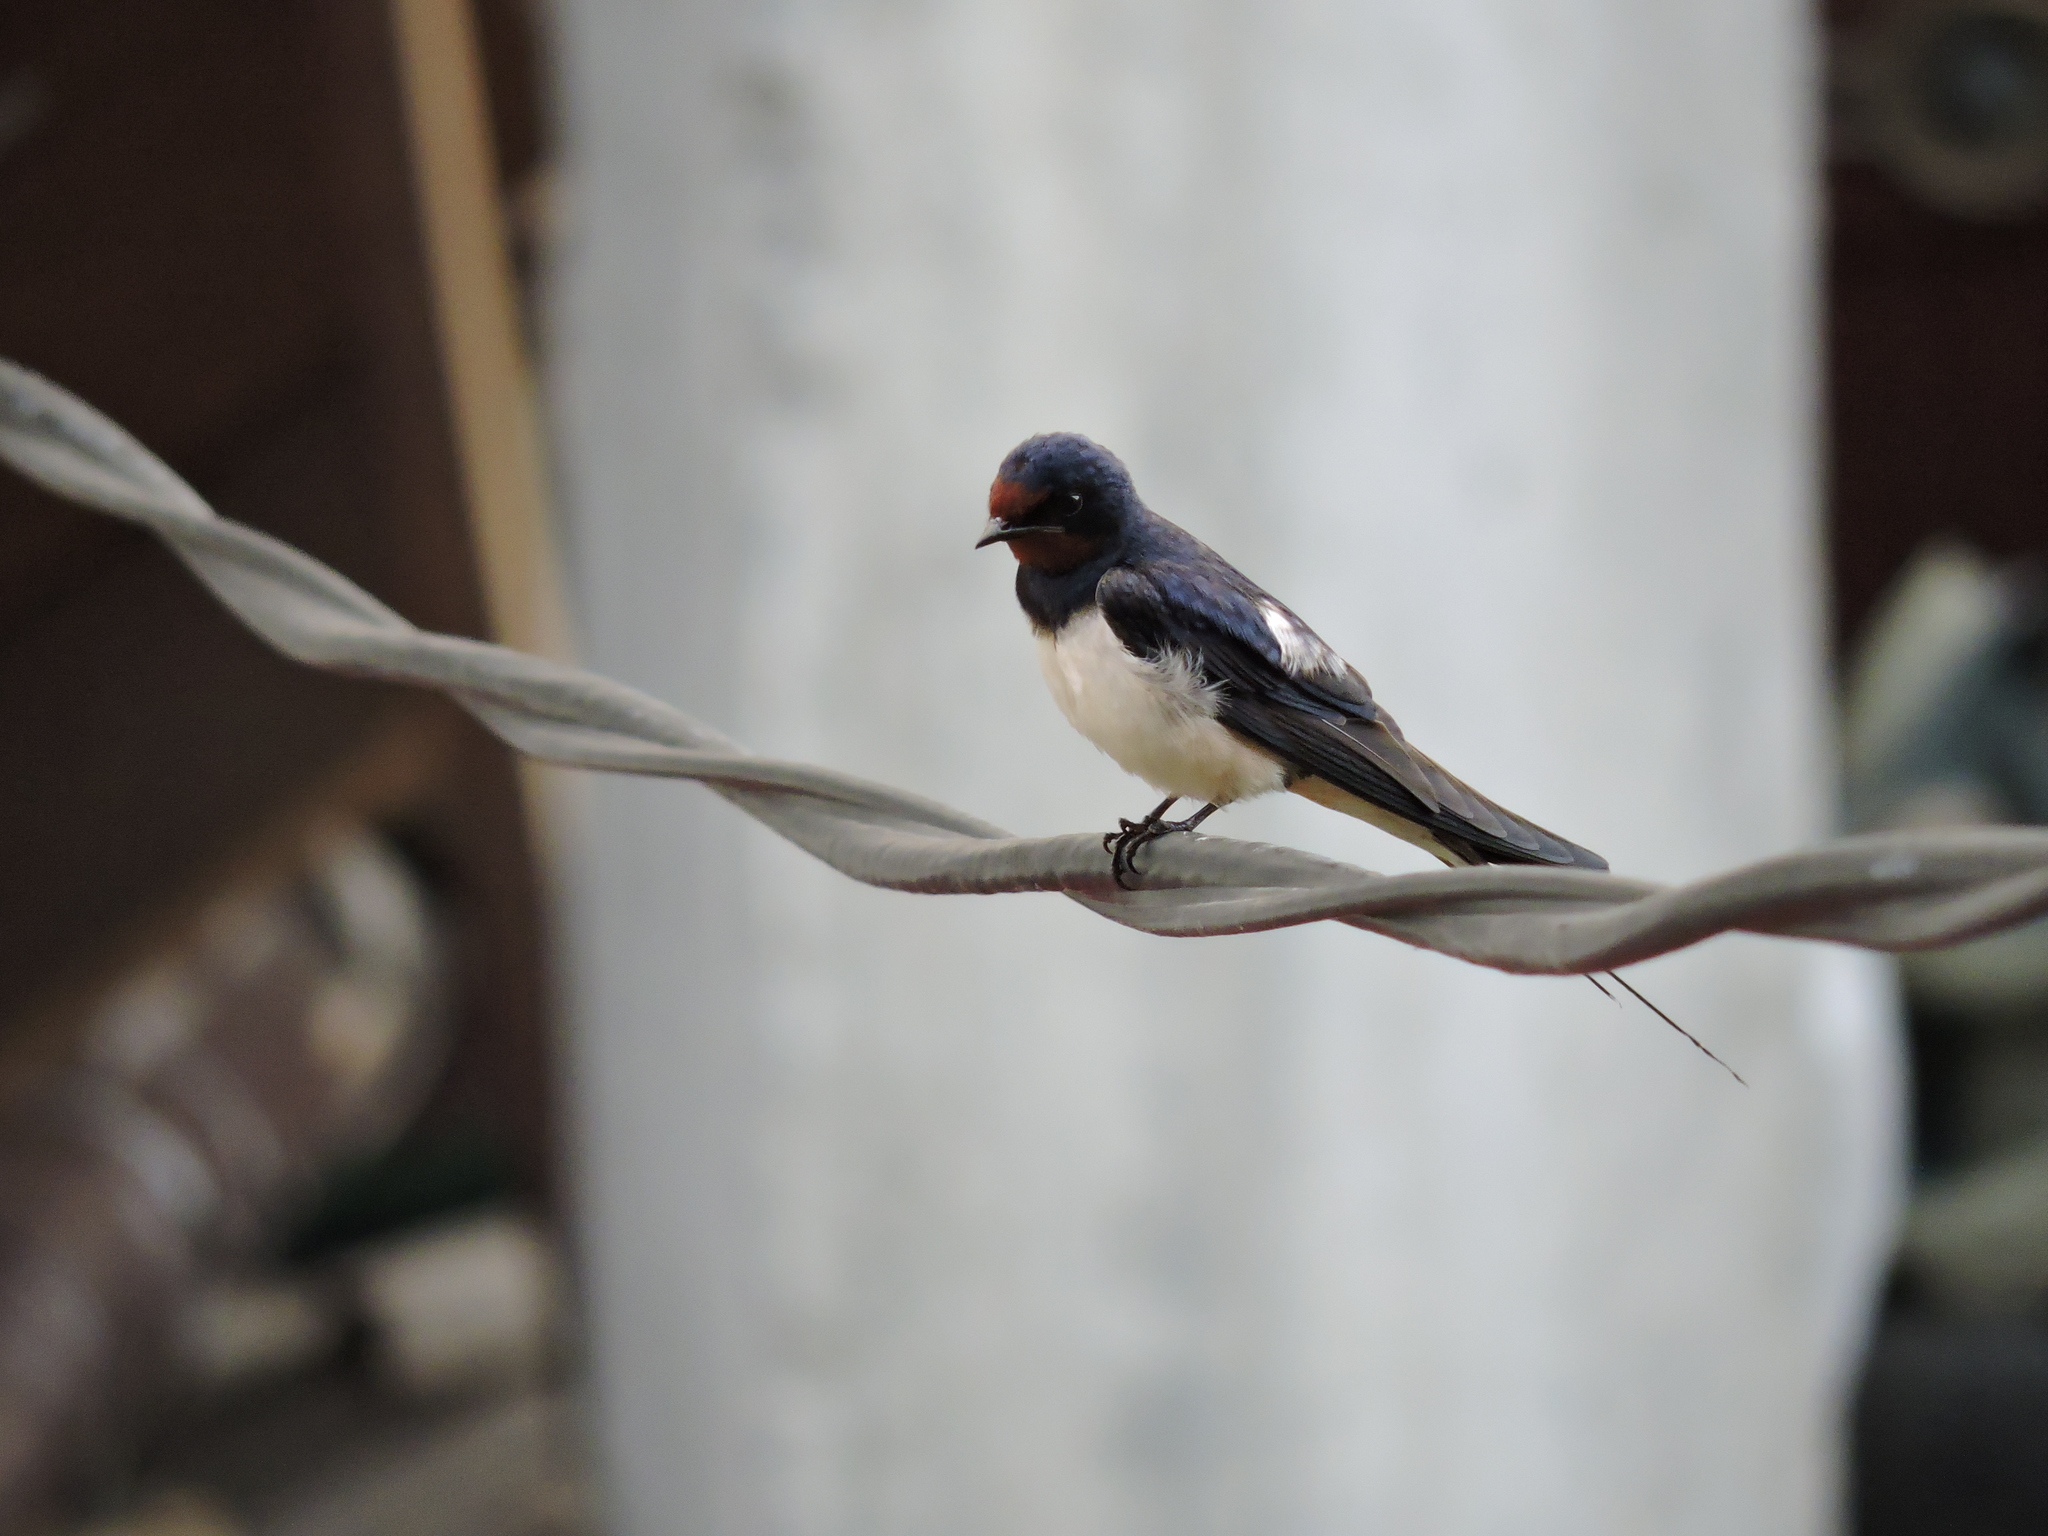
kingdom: Animalia
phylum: Chordata
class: Aves
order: Passeriformes
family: Hirundinidae
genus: Hirundo
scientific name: Hirundo rustica
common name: Barn swallow
